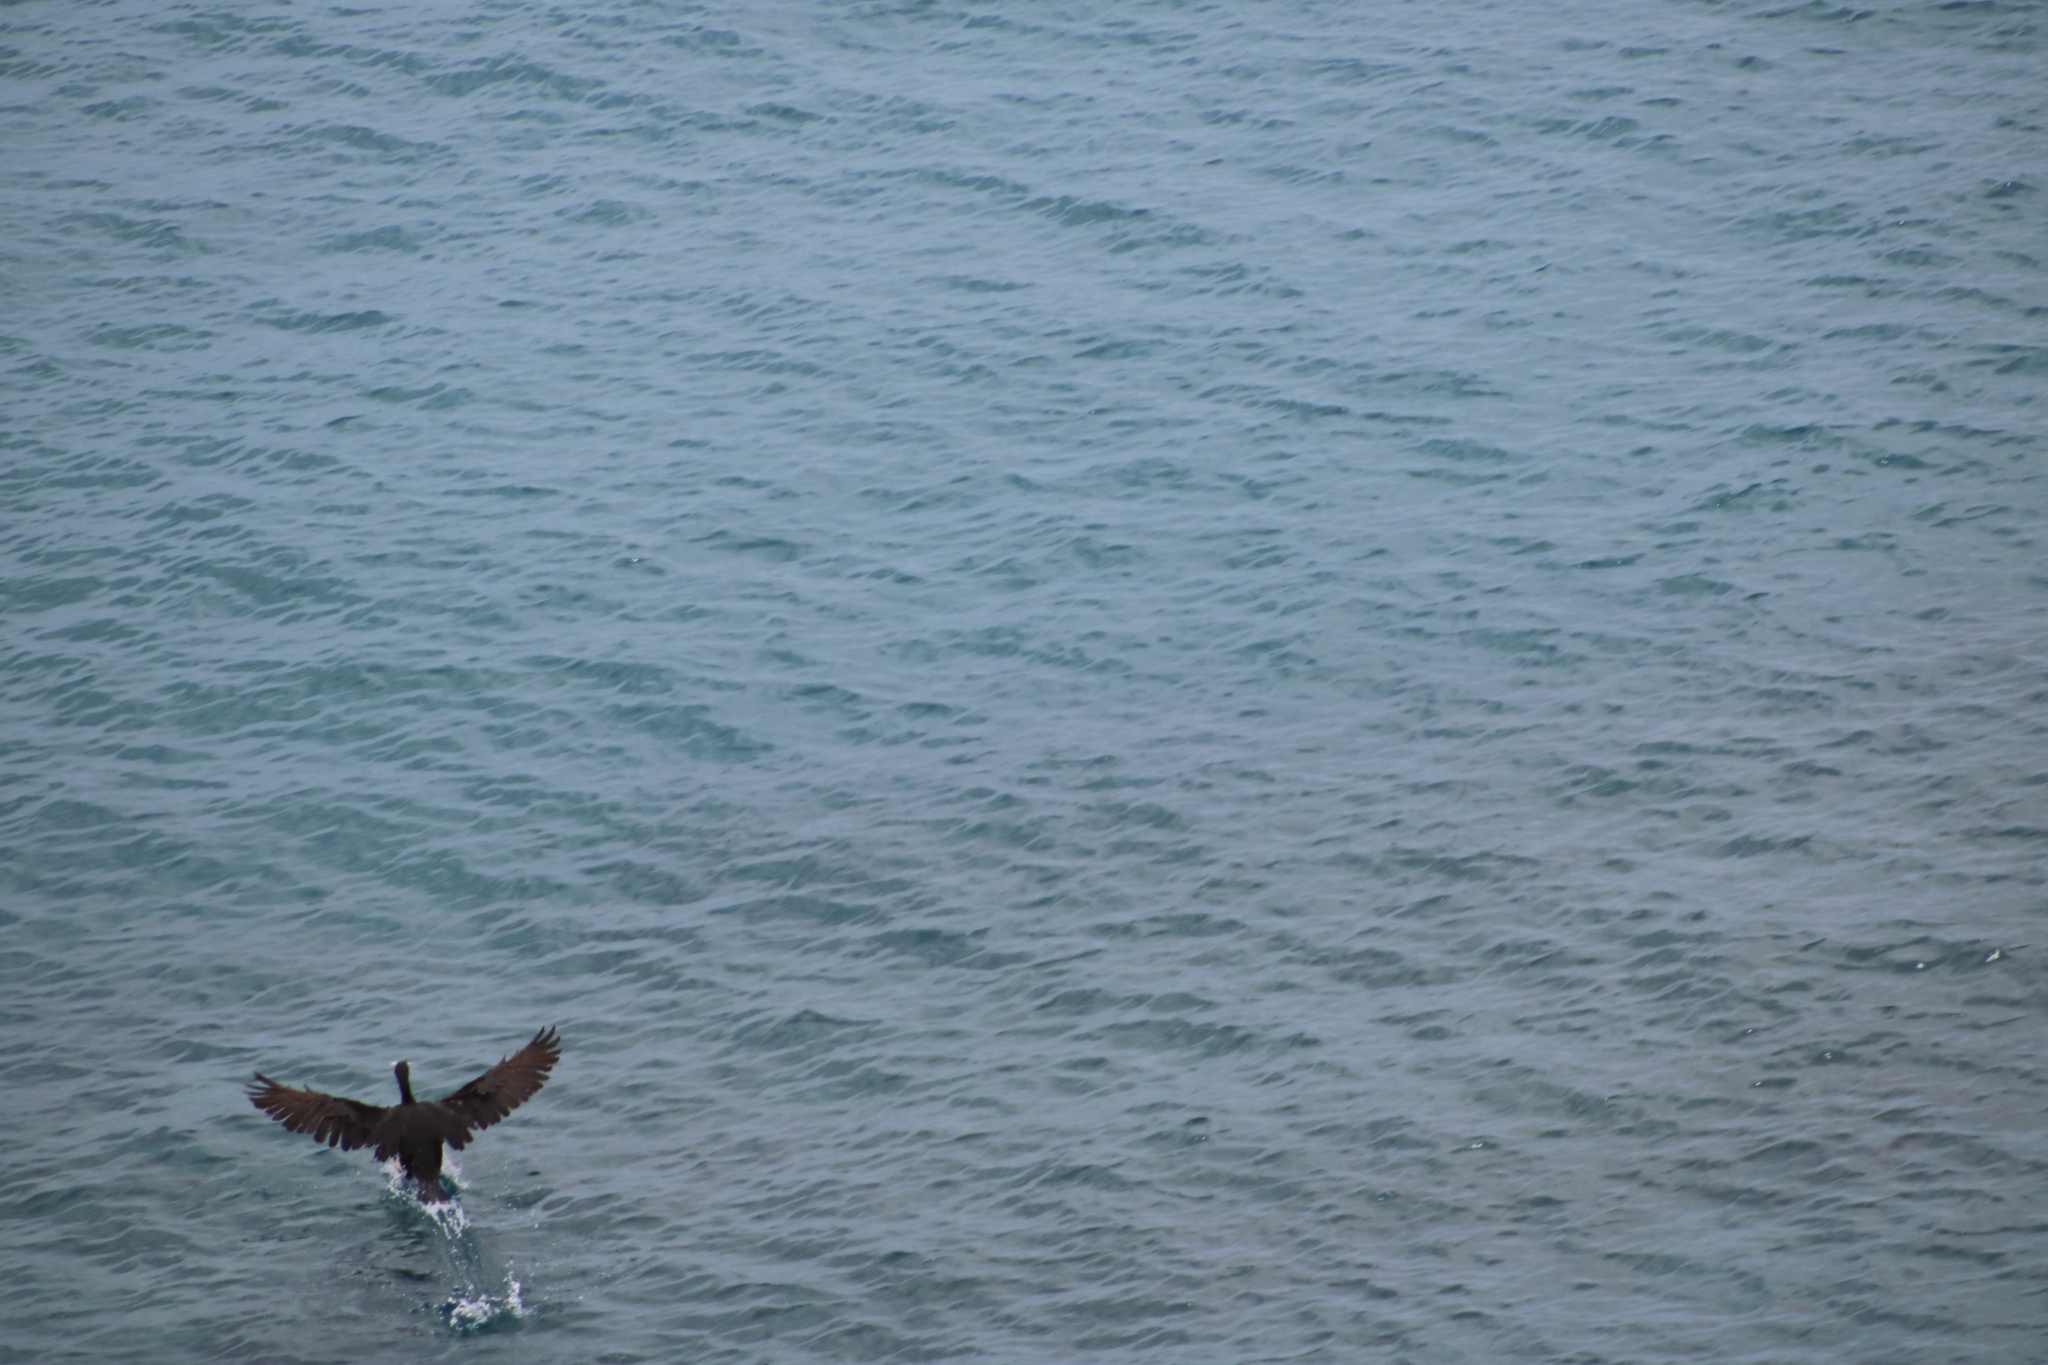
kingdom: Animalia
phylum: Chordata
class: Aves
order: Suliformes
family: Phalacrocoracidae
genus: Phalacrocorax
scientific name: Phalacrocorax aristotelis
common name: European shag
